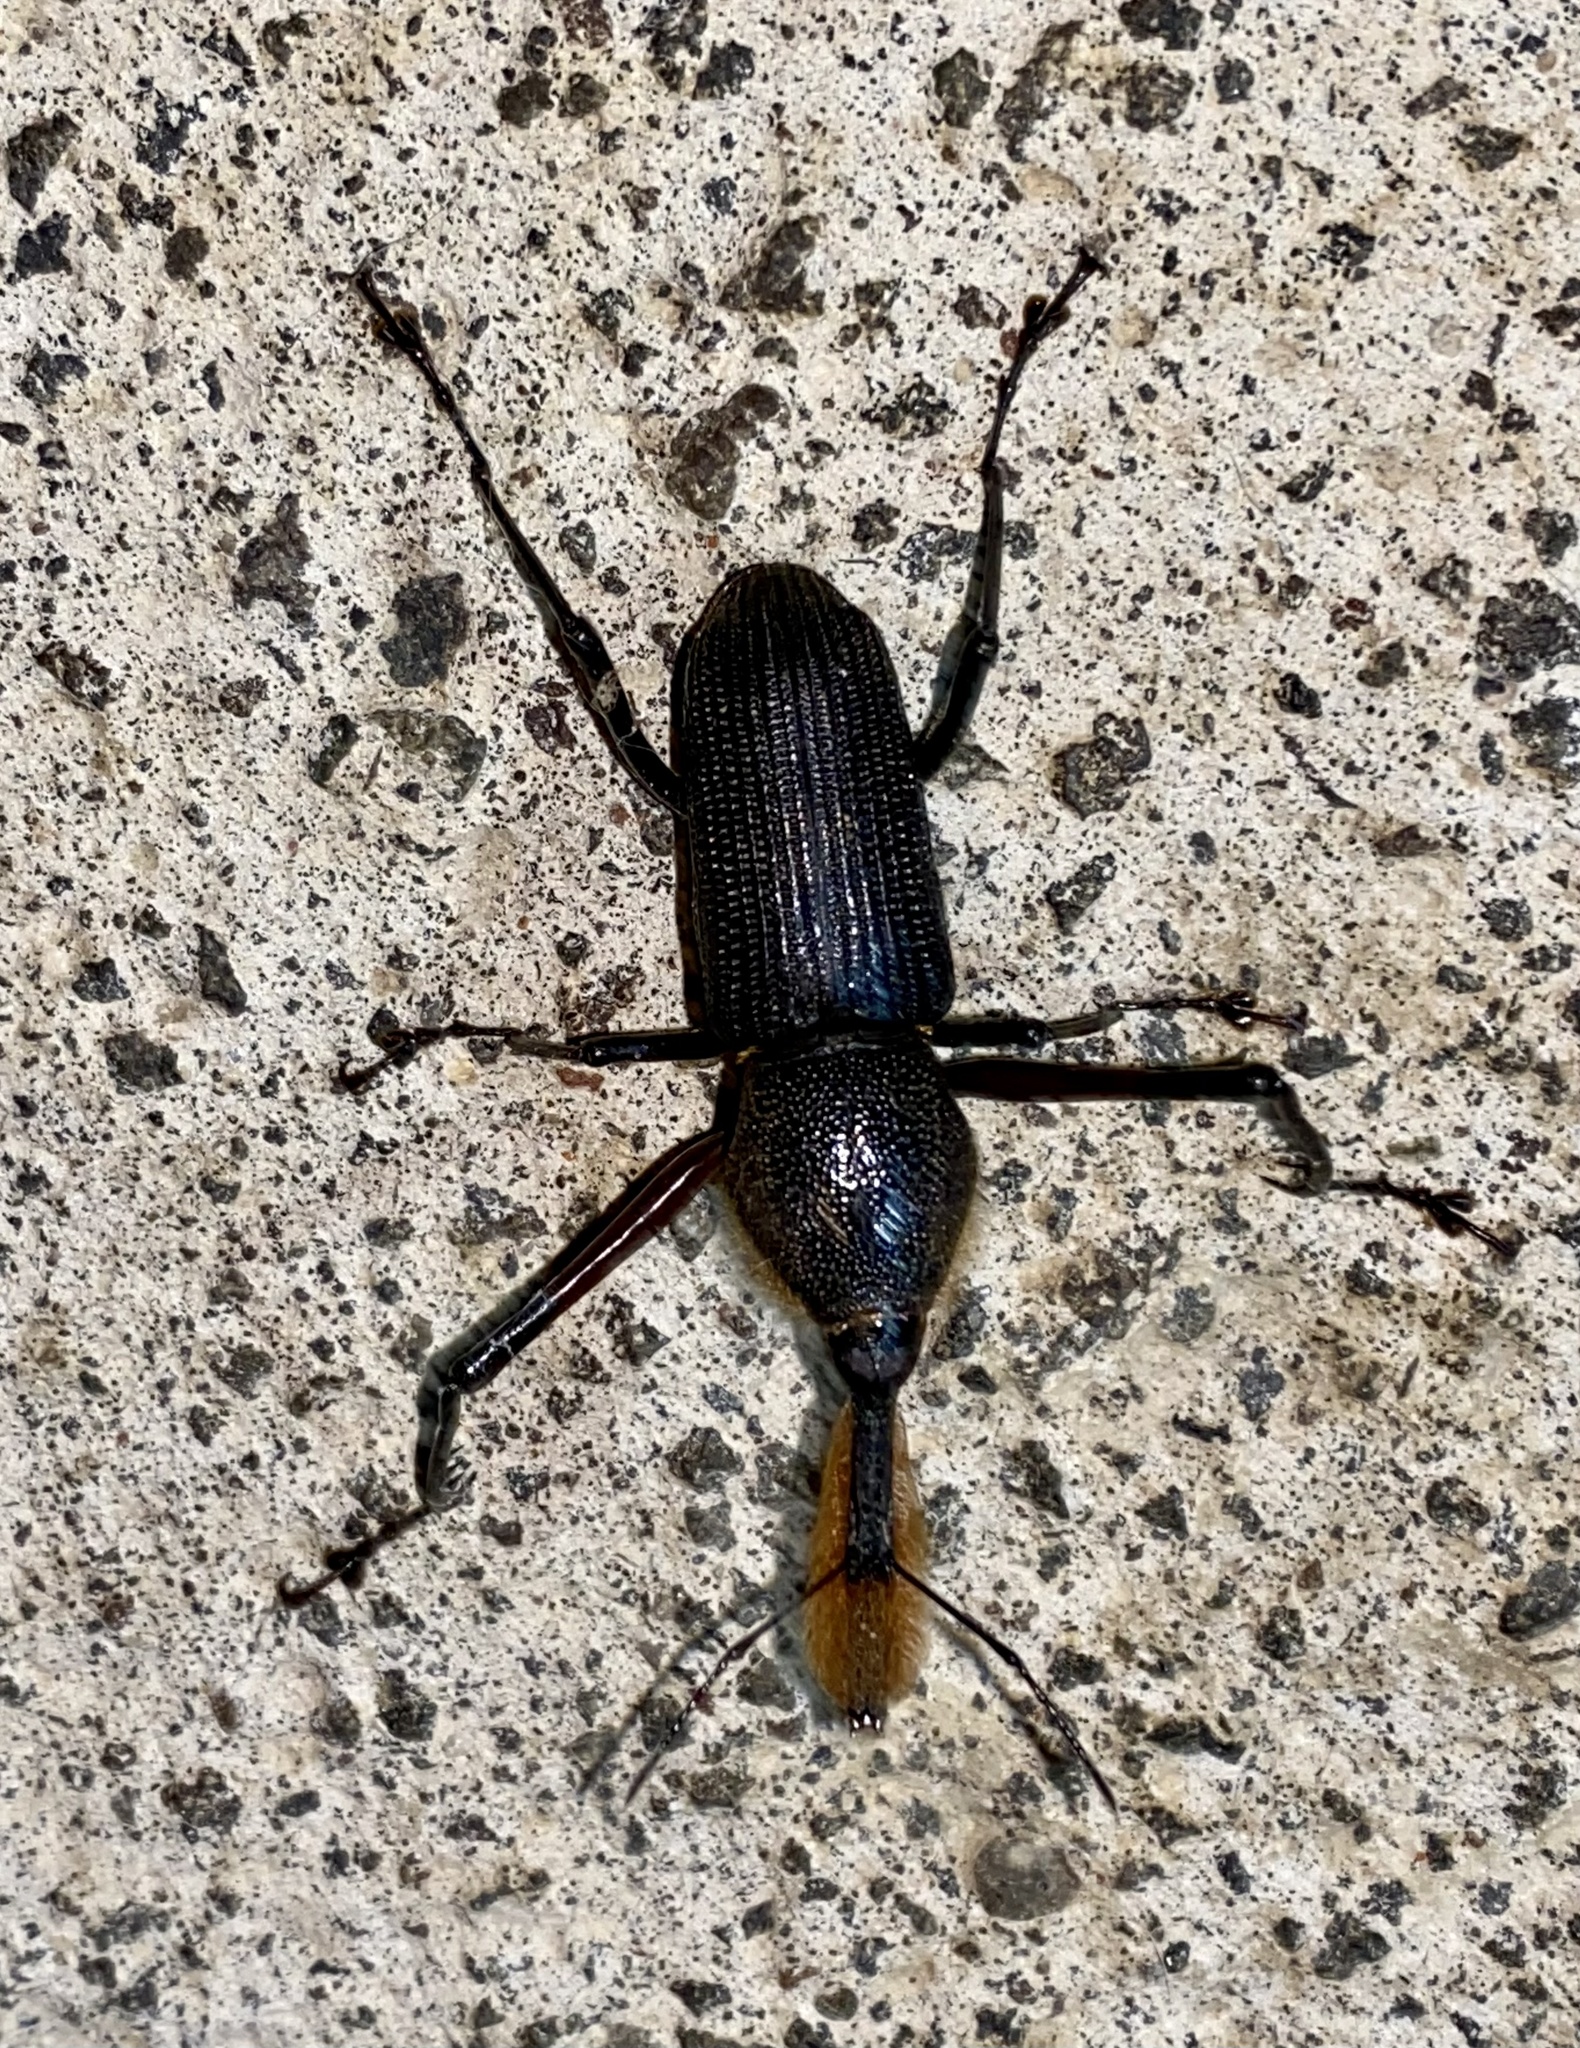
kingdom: Animalia
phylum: Arthropoda
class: Insecta
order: Coleoptera
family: Dryophthoridae
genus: Rhinostomus
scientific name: Rhinostomus barbirostris
